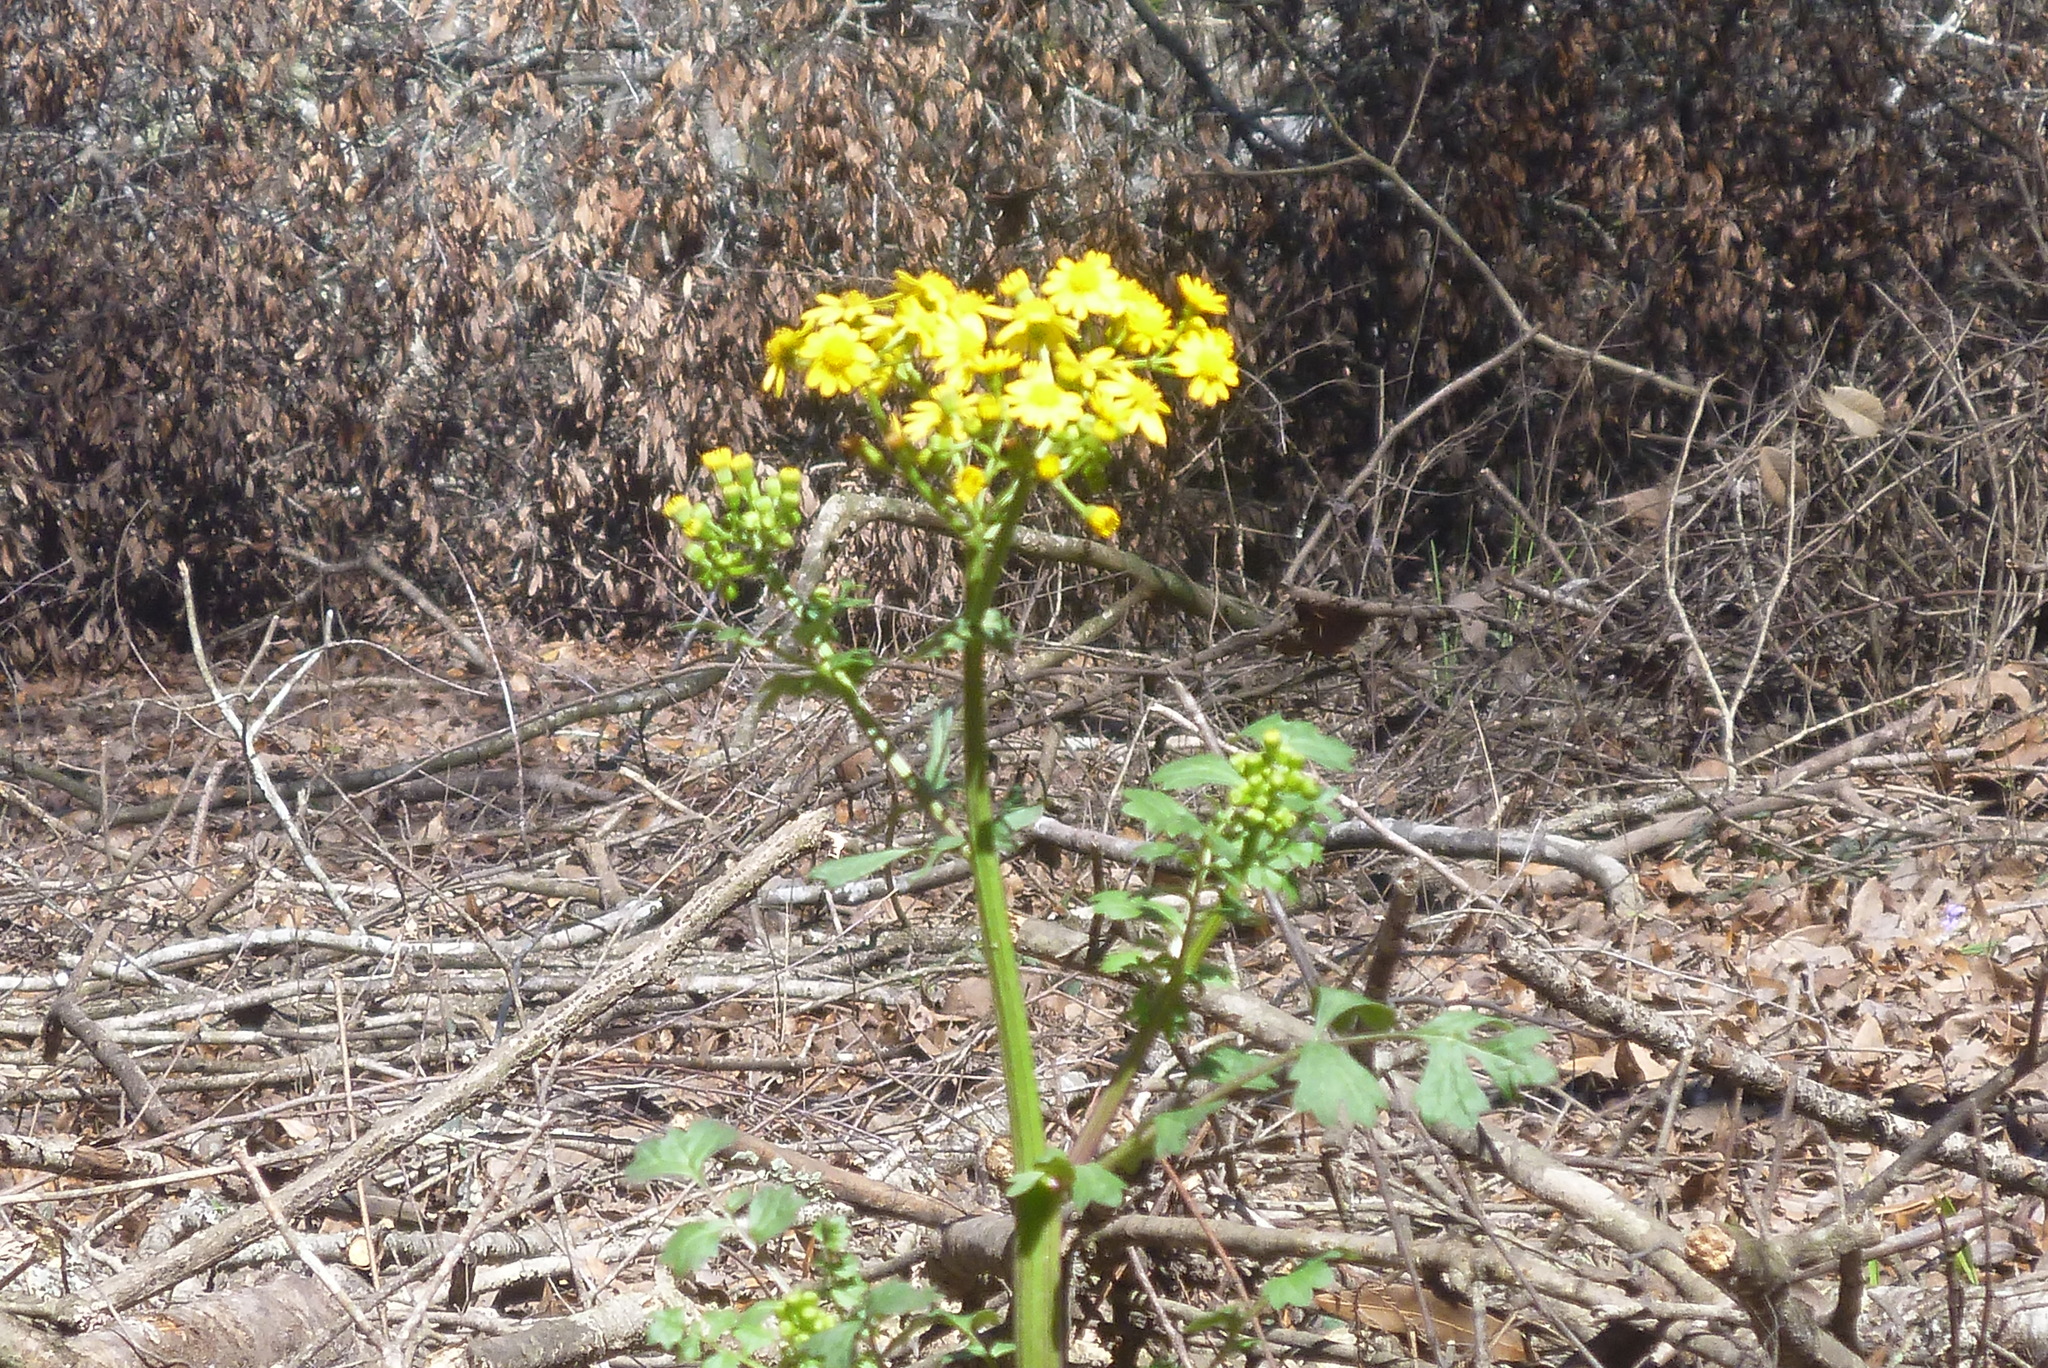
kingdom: Plantae
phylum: Tracheophyta
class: Magnoliopsida
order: Asterales
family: Asteraceae
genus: Packera
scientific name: Packera glabella
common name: Butterweed
